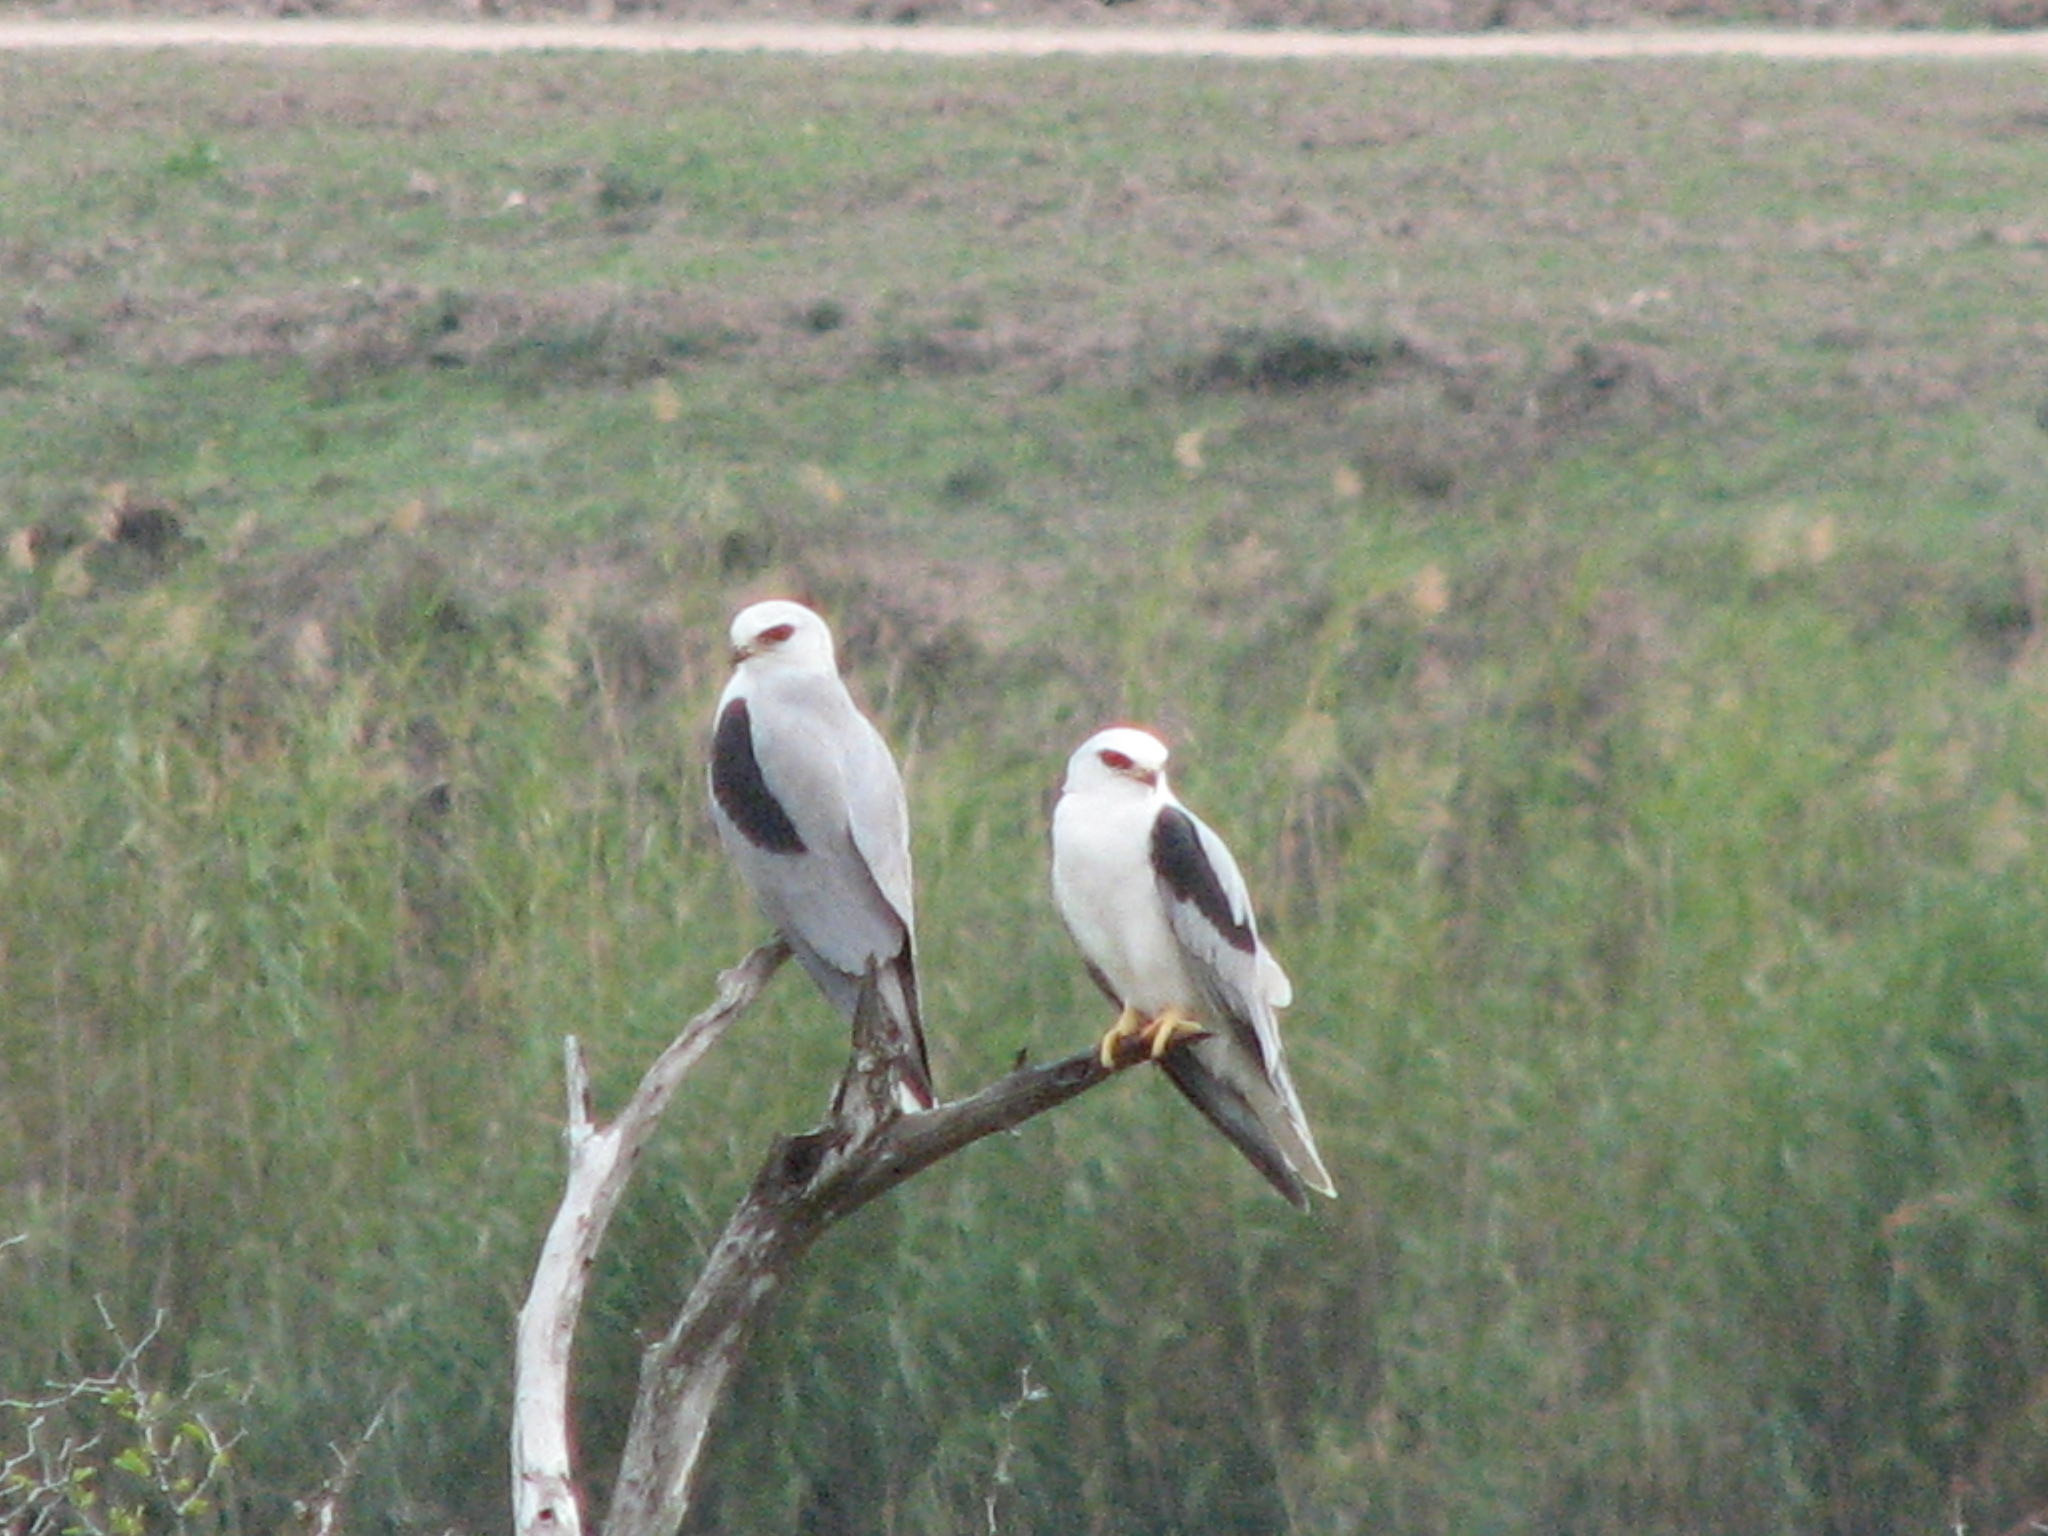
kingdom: Animalia
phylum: Chordata
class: Aves
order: Accipitriformes
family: Accipitridae
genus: Elanus
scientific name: Elanus leucurus
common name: White-tailed kite
